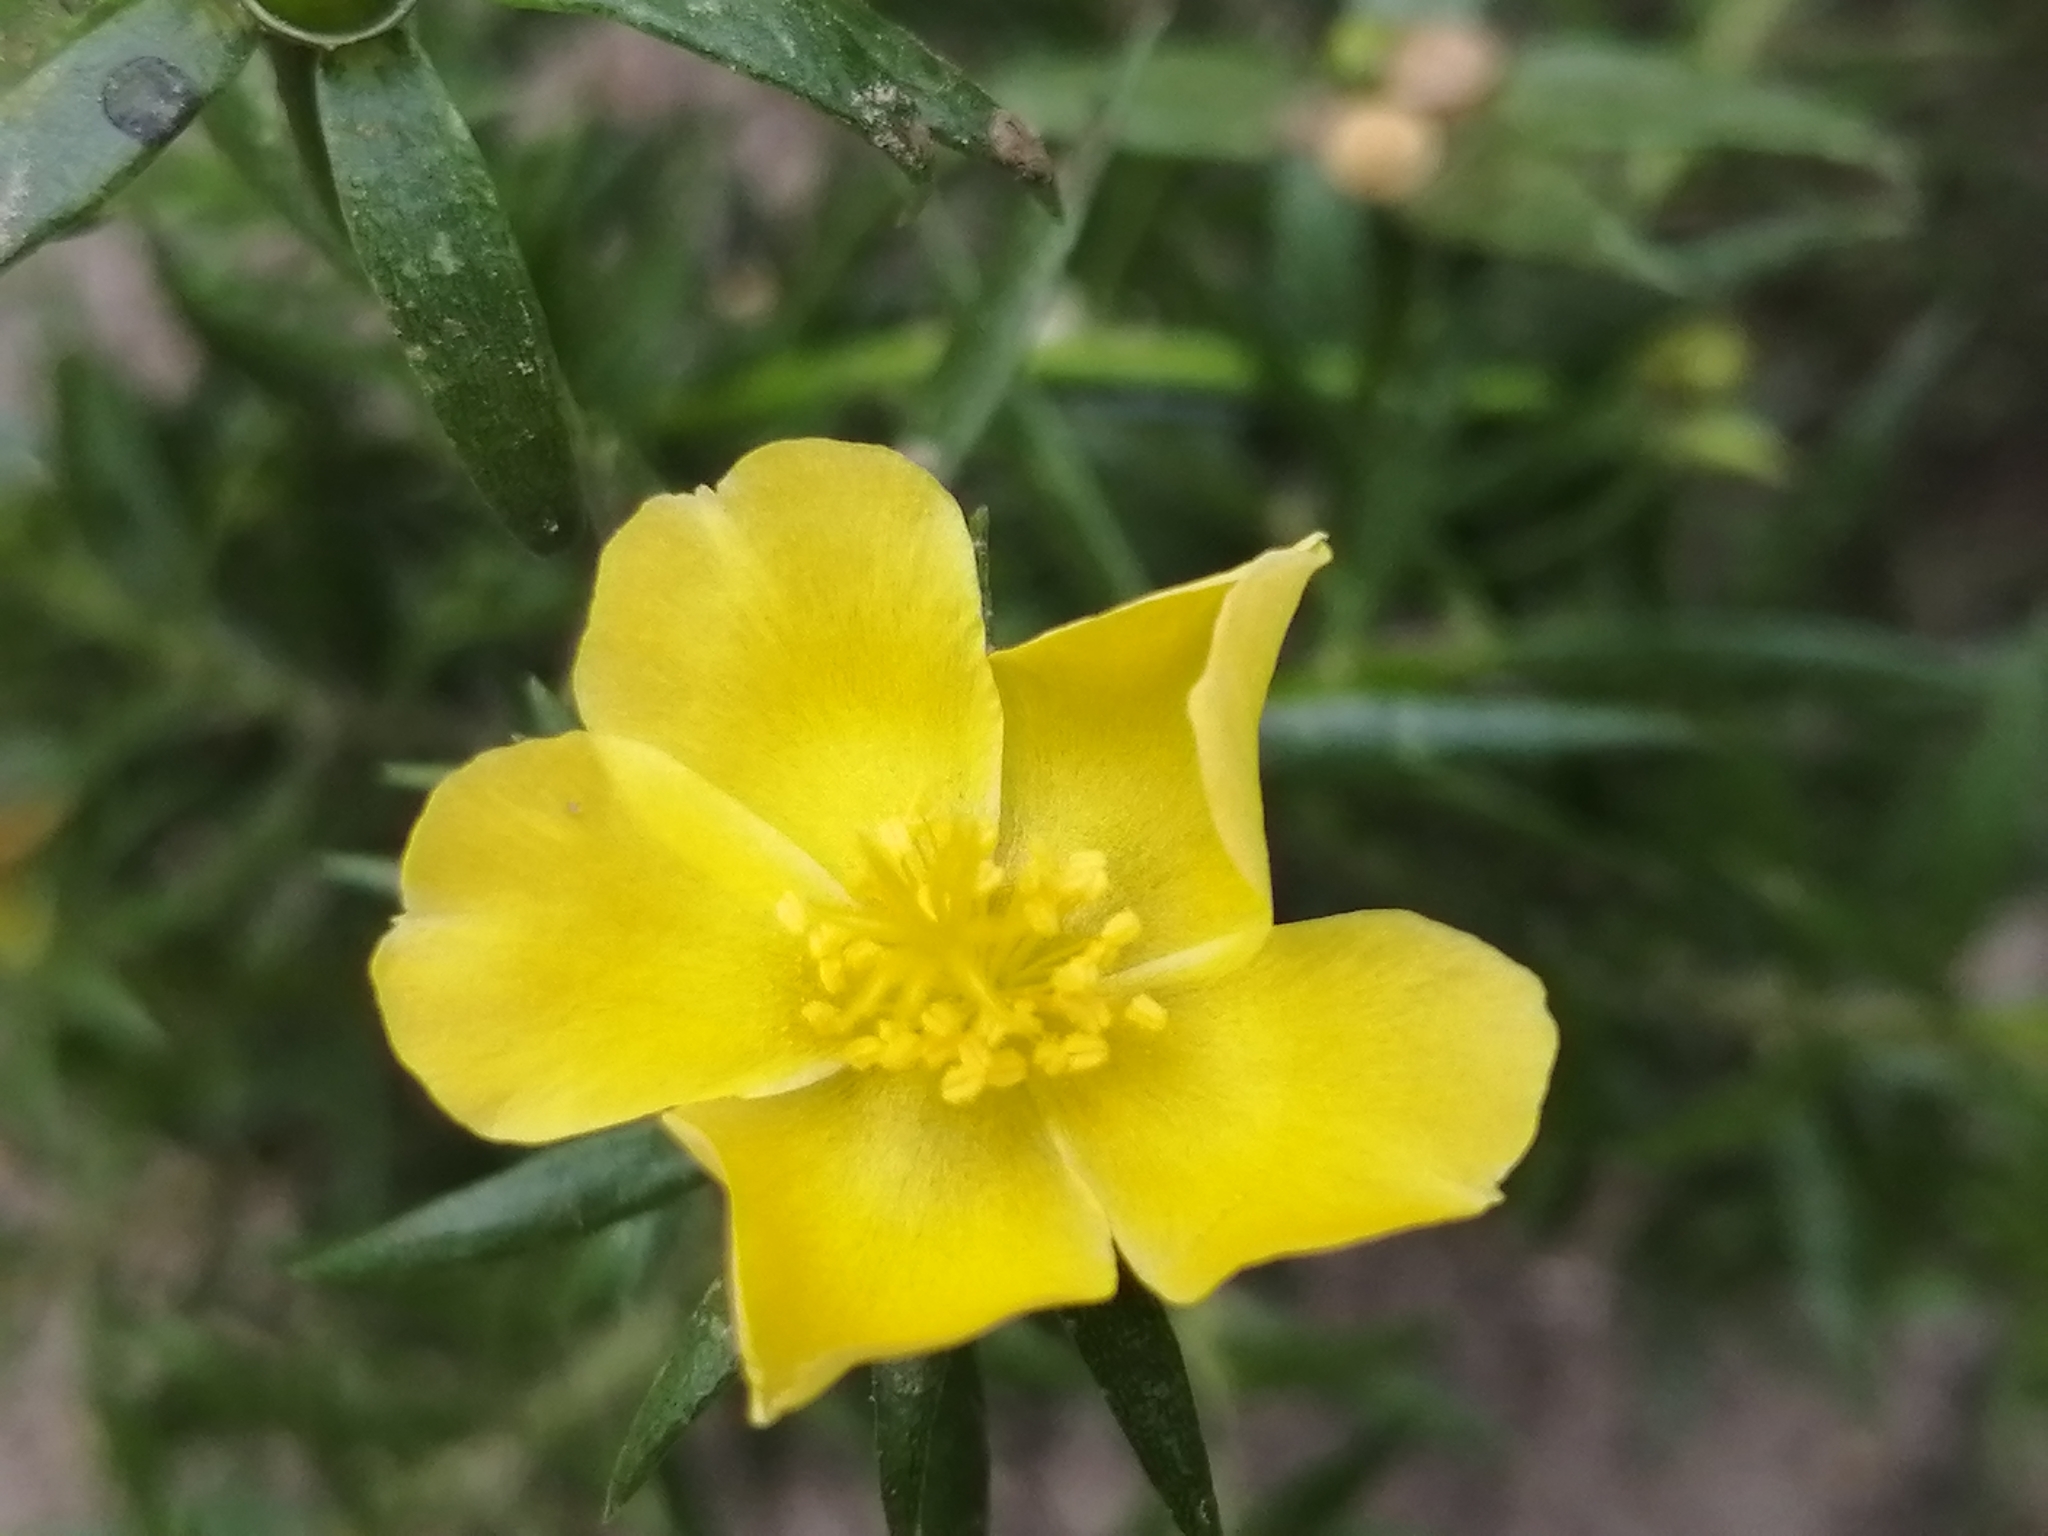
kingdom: Plantae
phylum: Tracheophyta
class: Magnoliopsida
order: Caryophyllales
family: Portulacaceae
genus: Portulaca
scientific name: Portulaca grandiflora
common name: Moss-rose
